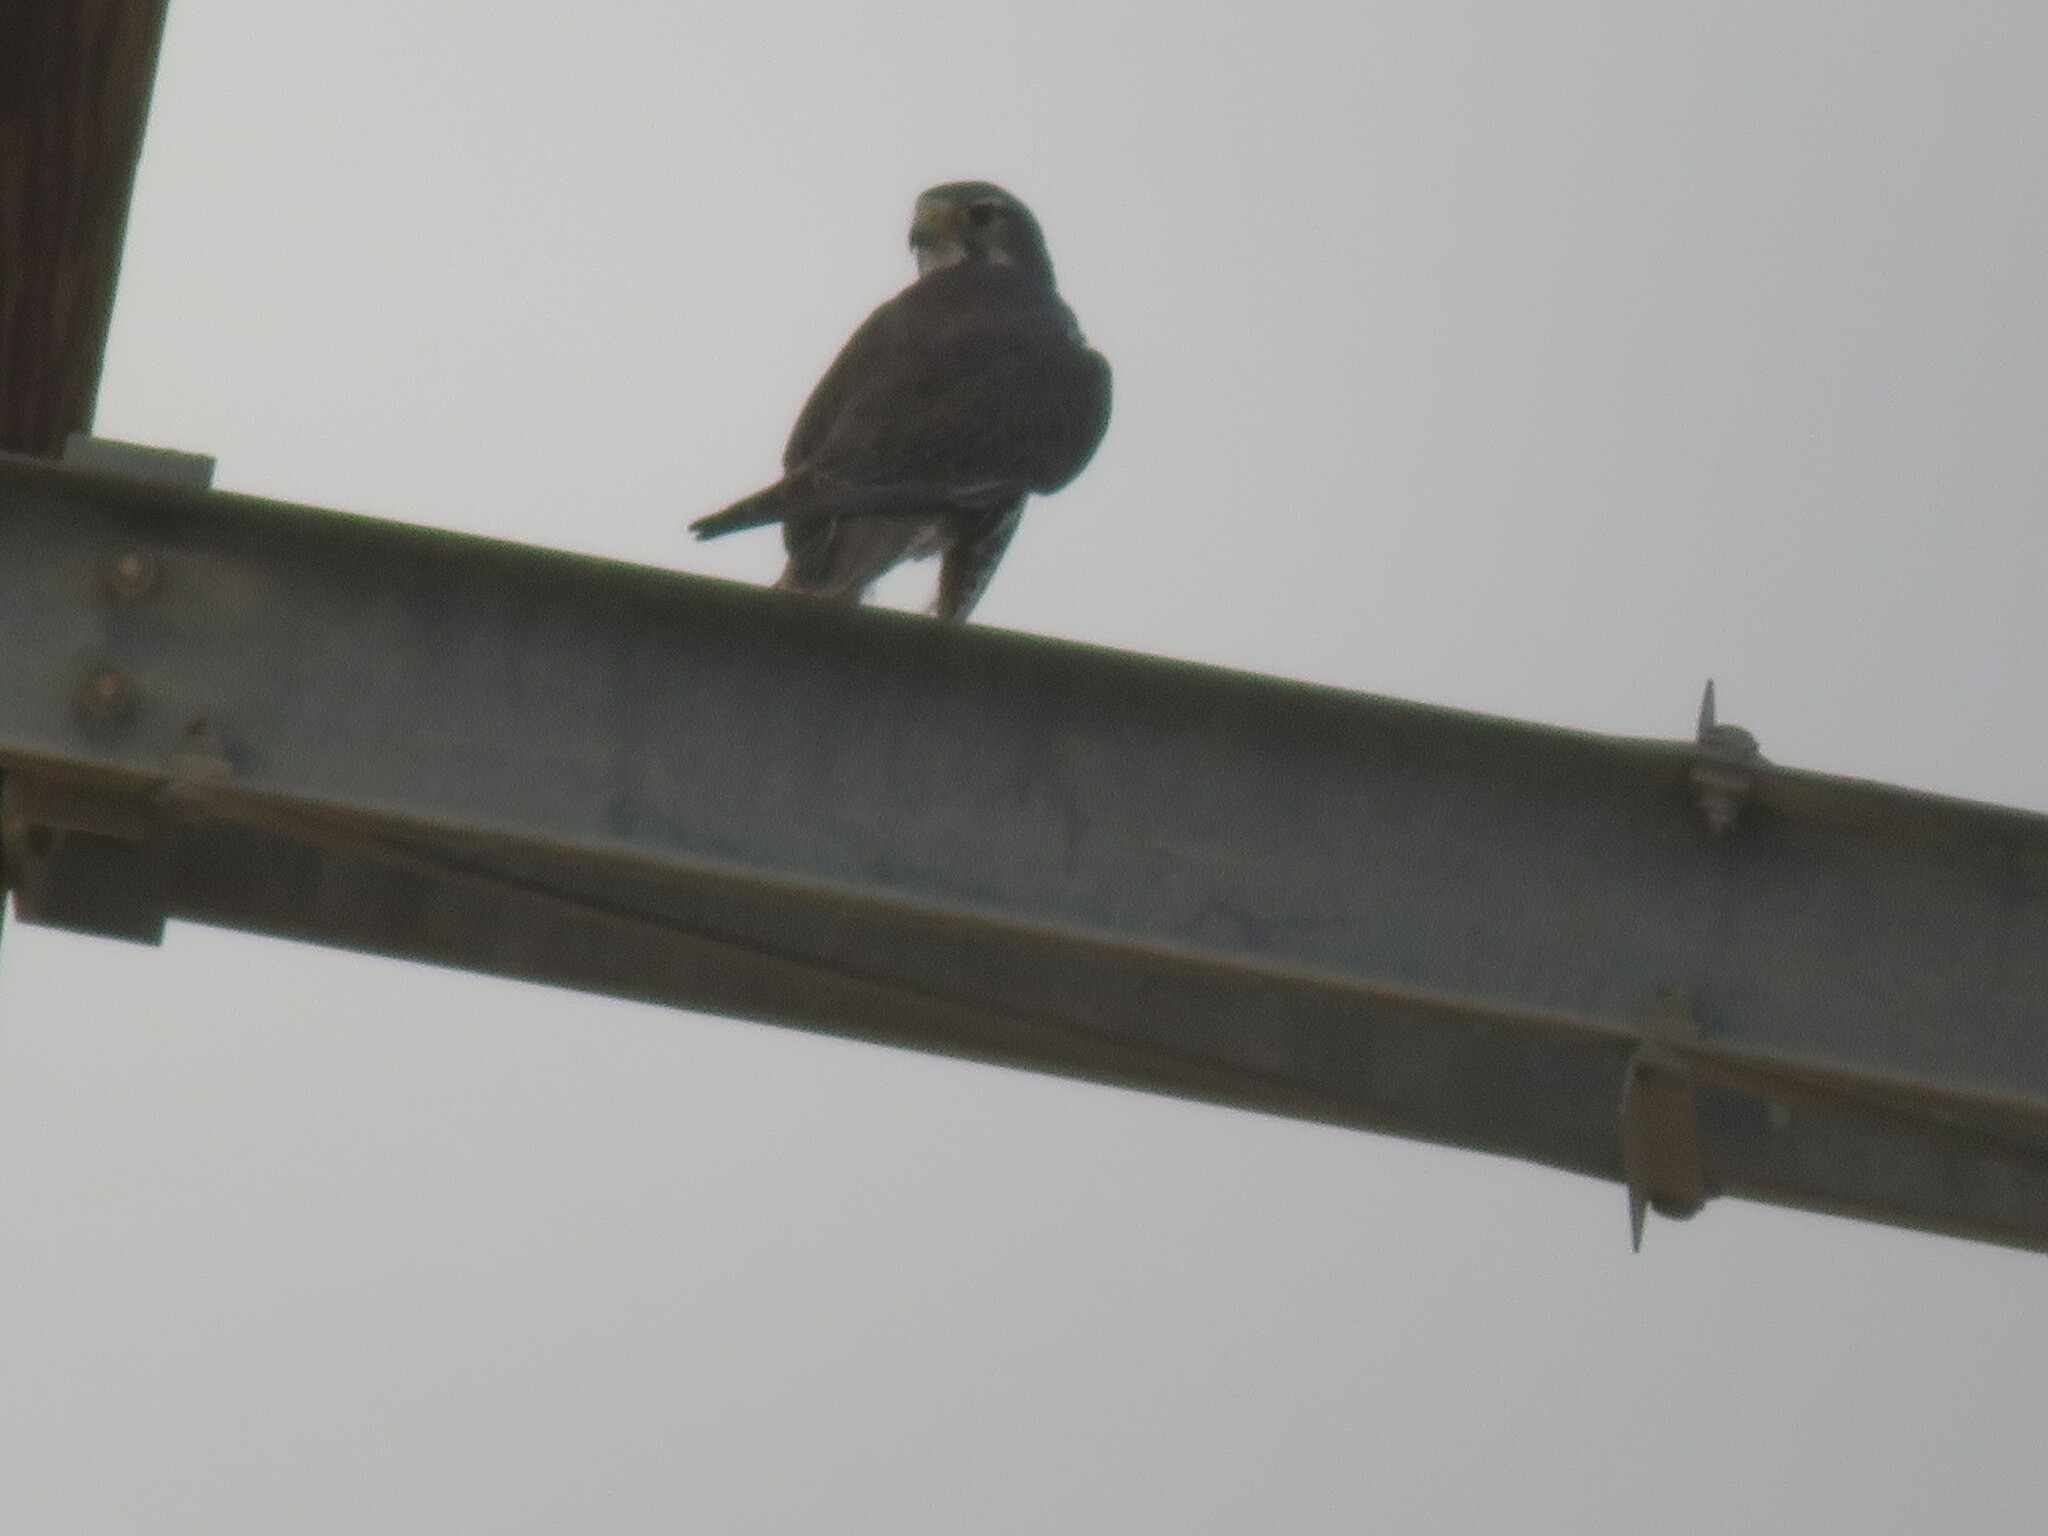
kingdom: Animalia
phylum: Chordata
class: Aves
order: Falconiformes
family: Falconidae
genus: Falco
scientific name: Falco mexicanus
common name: Prairie falcon
